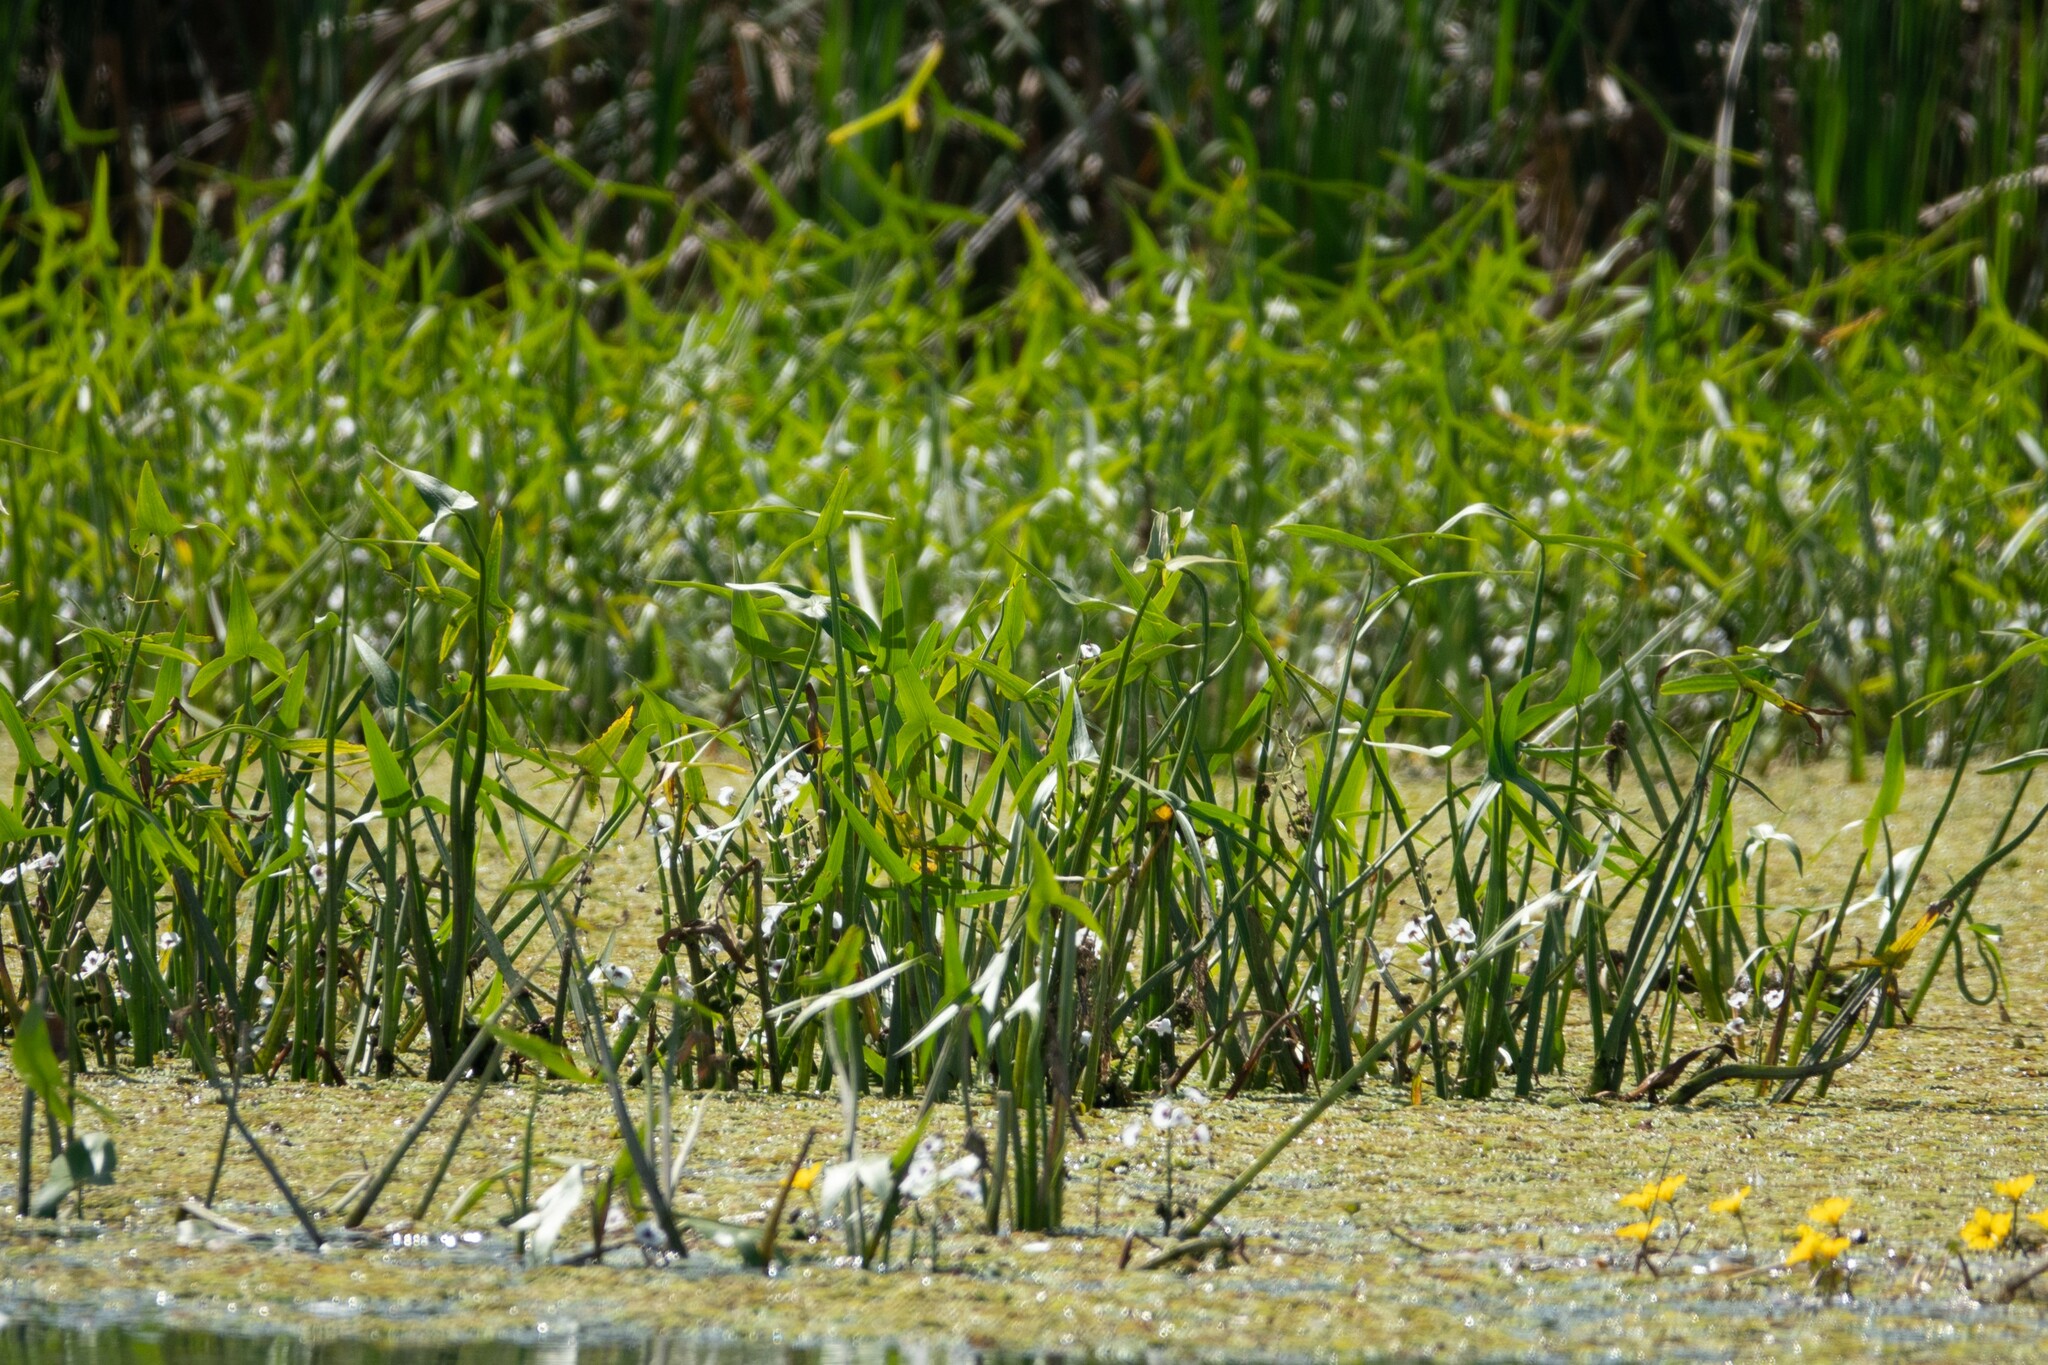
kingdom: Plantae
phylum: Tracheophyta
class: Liliopsida
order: Alismatales
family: Alismataceae
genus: Sagittaria
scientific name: Sagittaria sagittifolia
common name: Arrowhead
